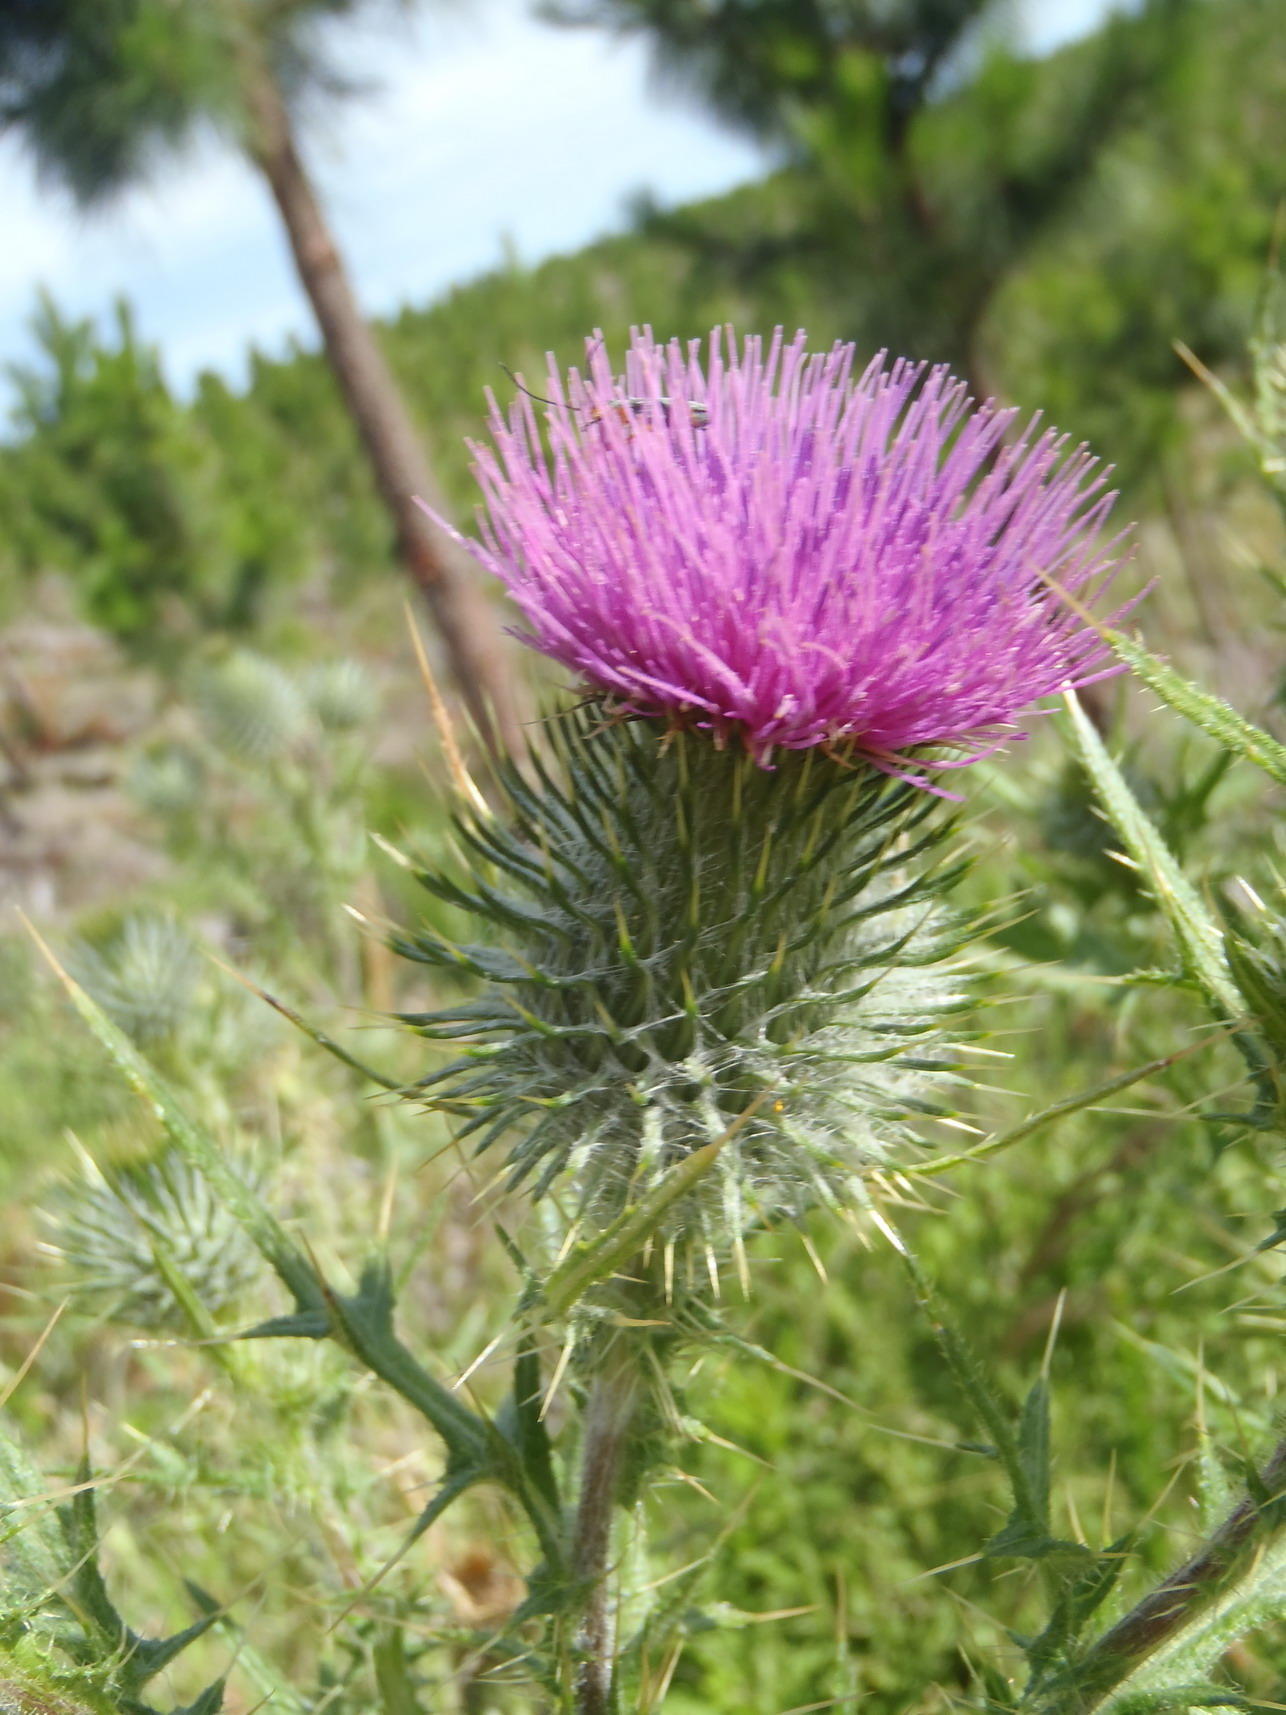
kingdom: Plantae
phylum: Tracheophyta
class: Magnoliopsida
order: Asterales
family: Asteraceae
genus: Cirsium
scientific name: Cirsium vulgare
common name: Bull thistle
